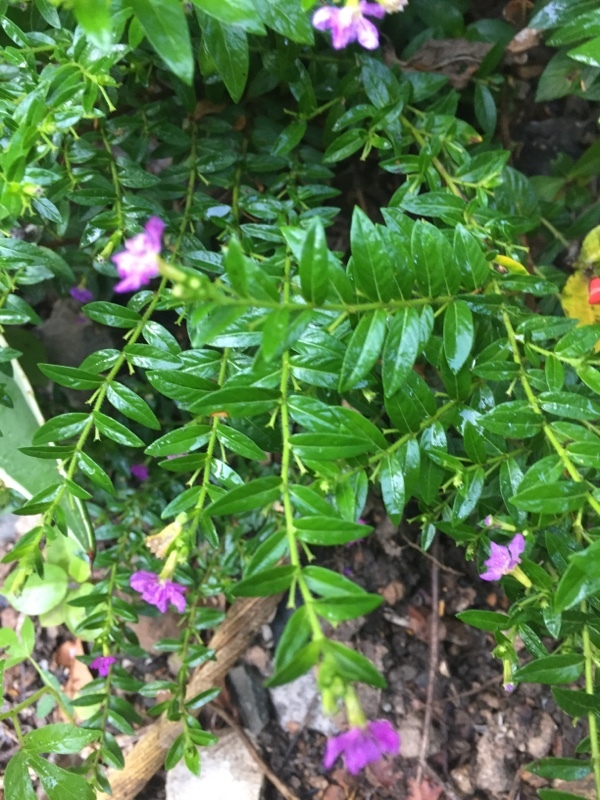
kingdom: Plantae
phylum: Tracheophyta
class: Magnoliopsida
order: Myrtales
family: Lythraceae
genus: Cuphea
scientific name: Cuphea hyssopifolia
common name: False heather
